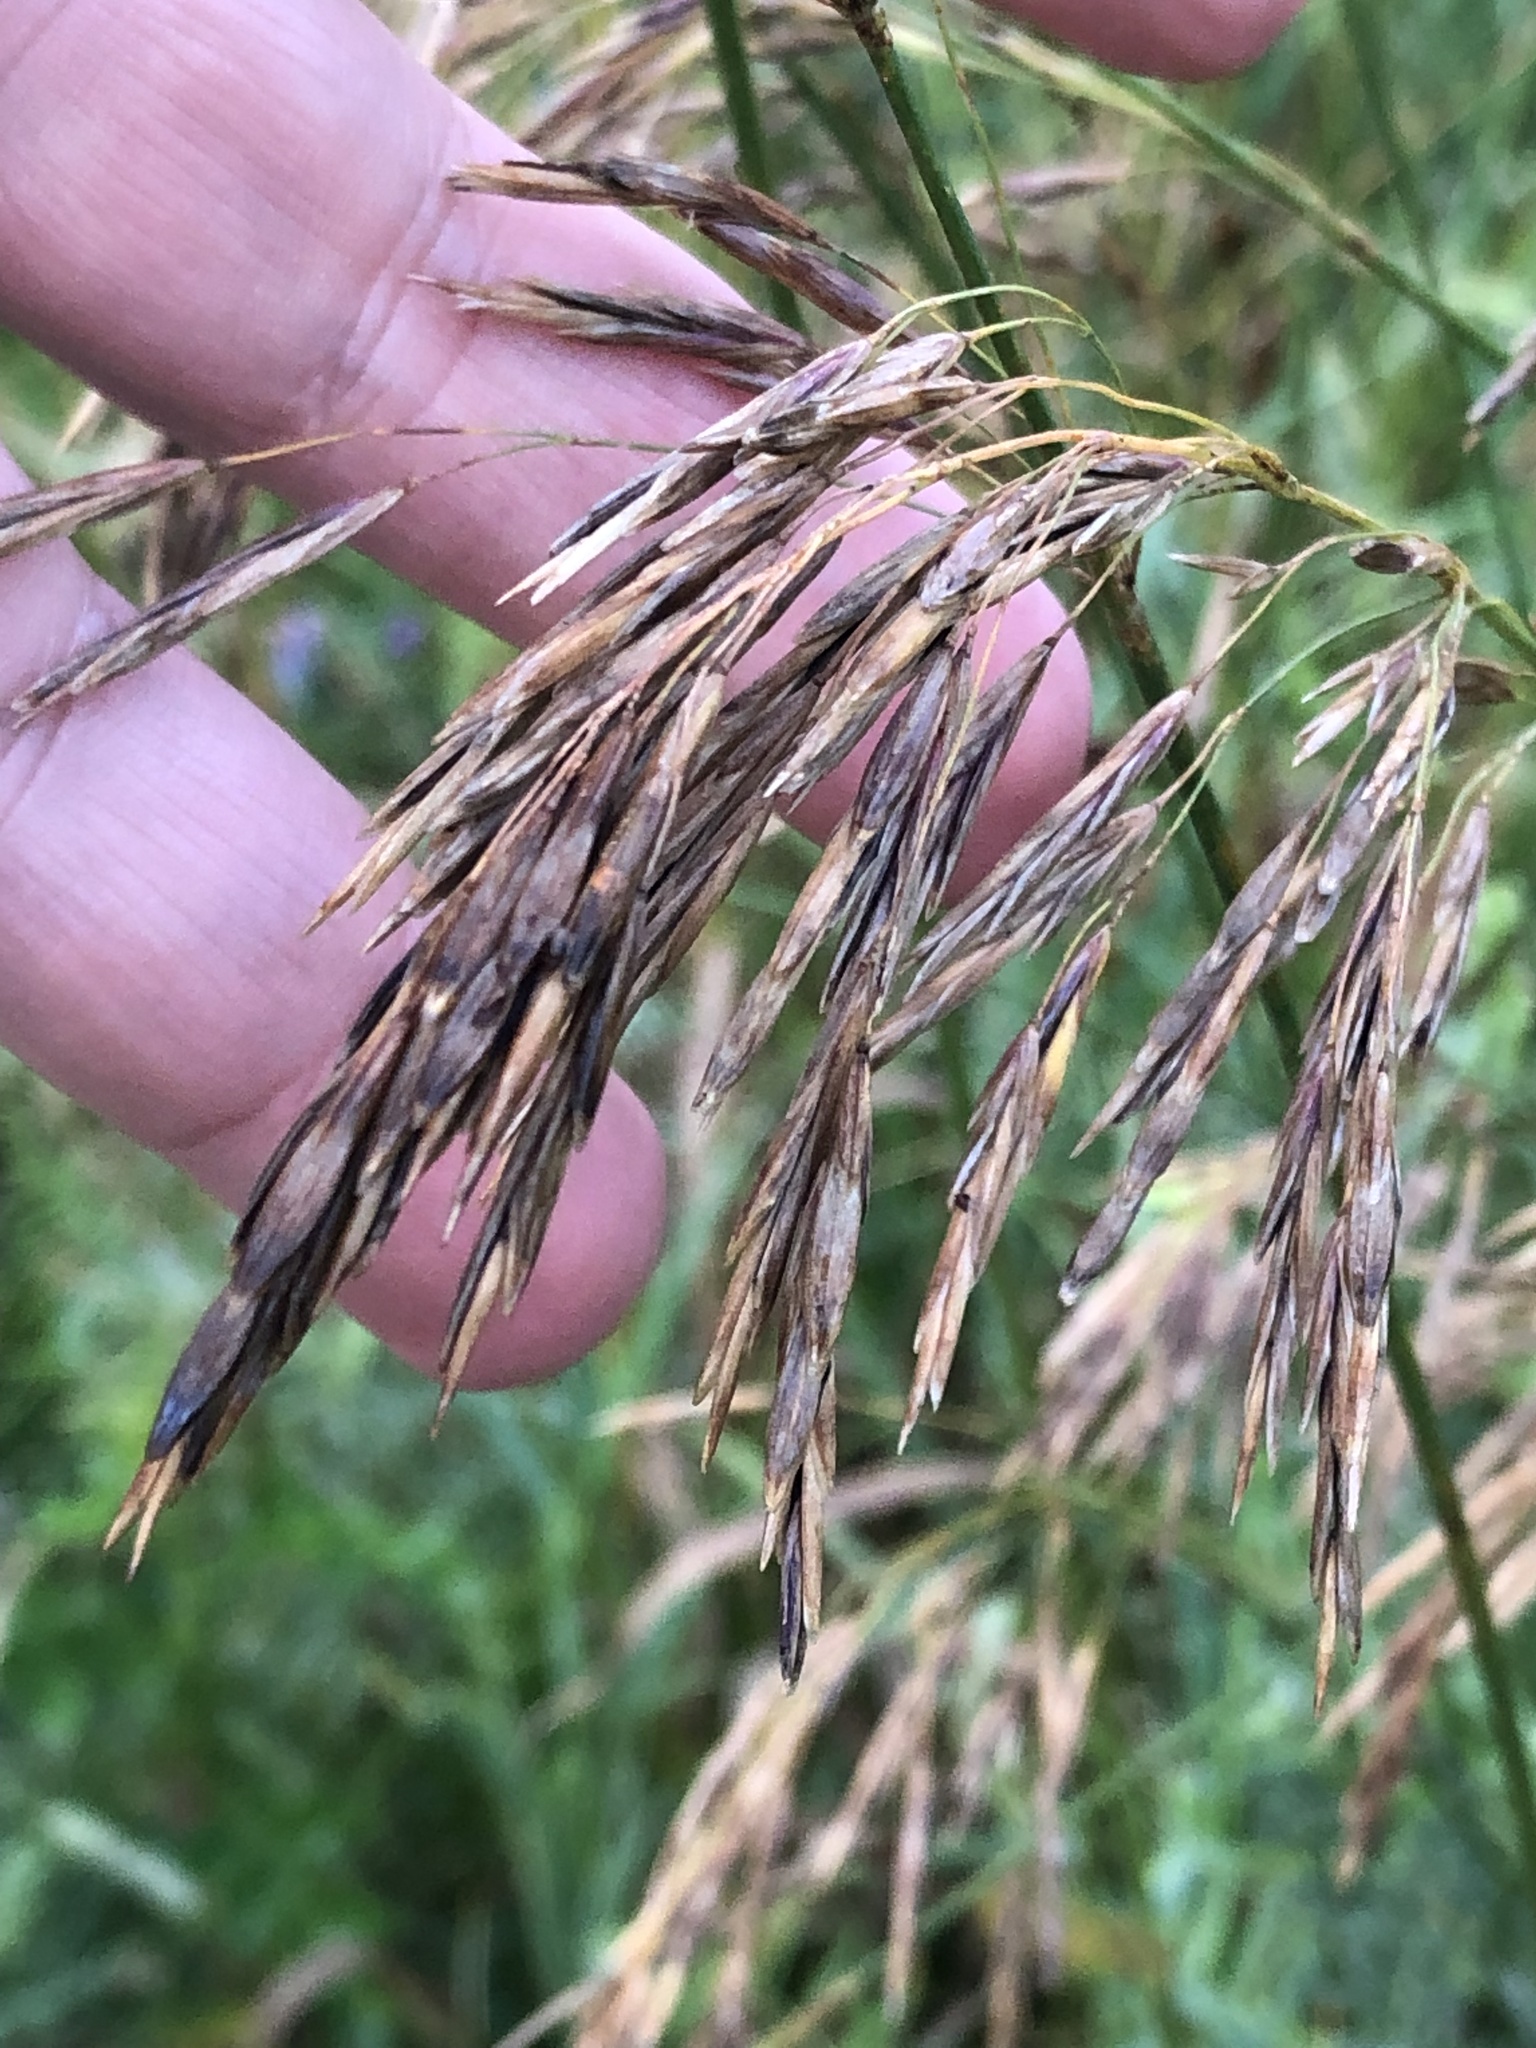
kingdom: Plantae
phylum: Tracheophyta
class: Liliopsida
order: Poales
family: Poaceae
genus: Bromus
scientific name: Bromus inermis
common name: Smooth brome
